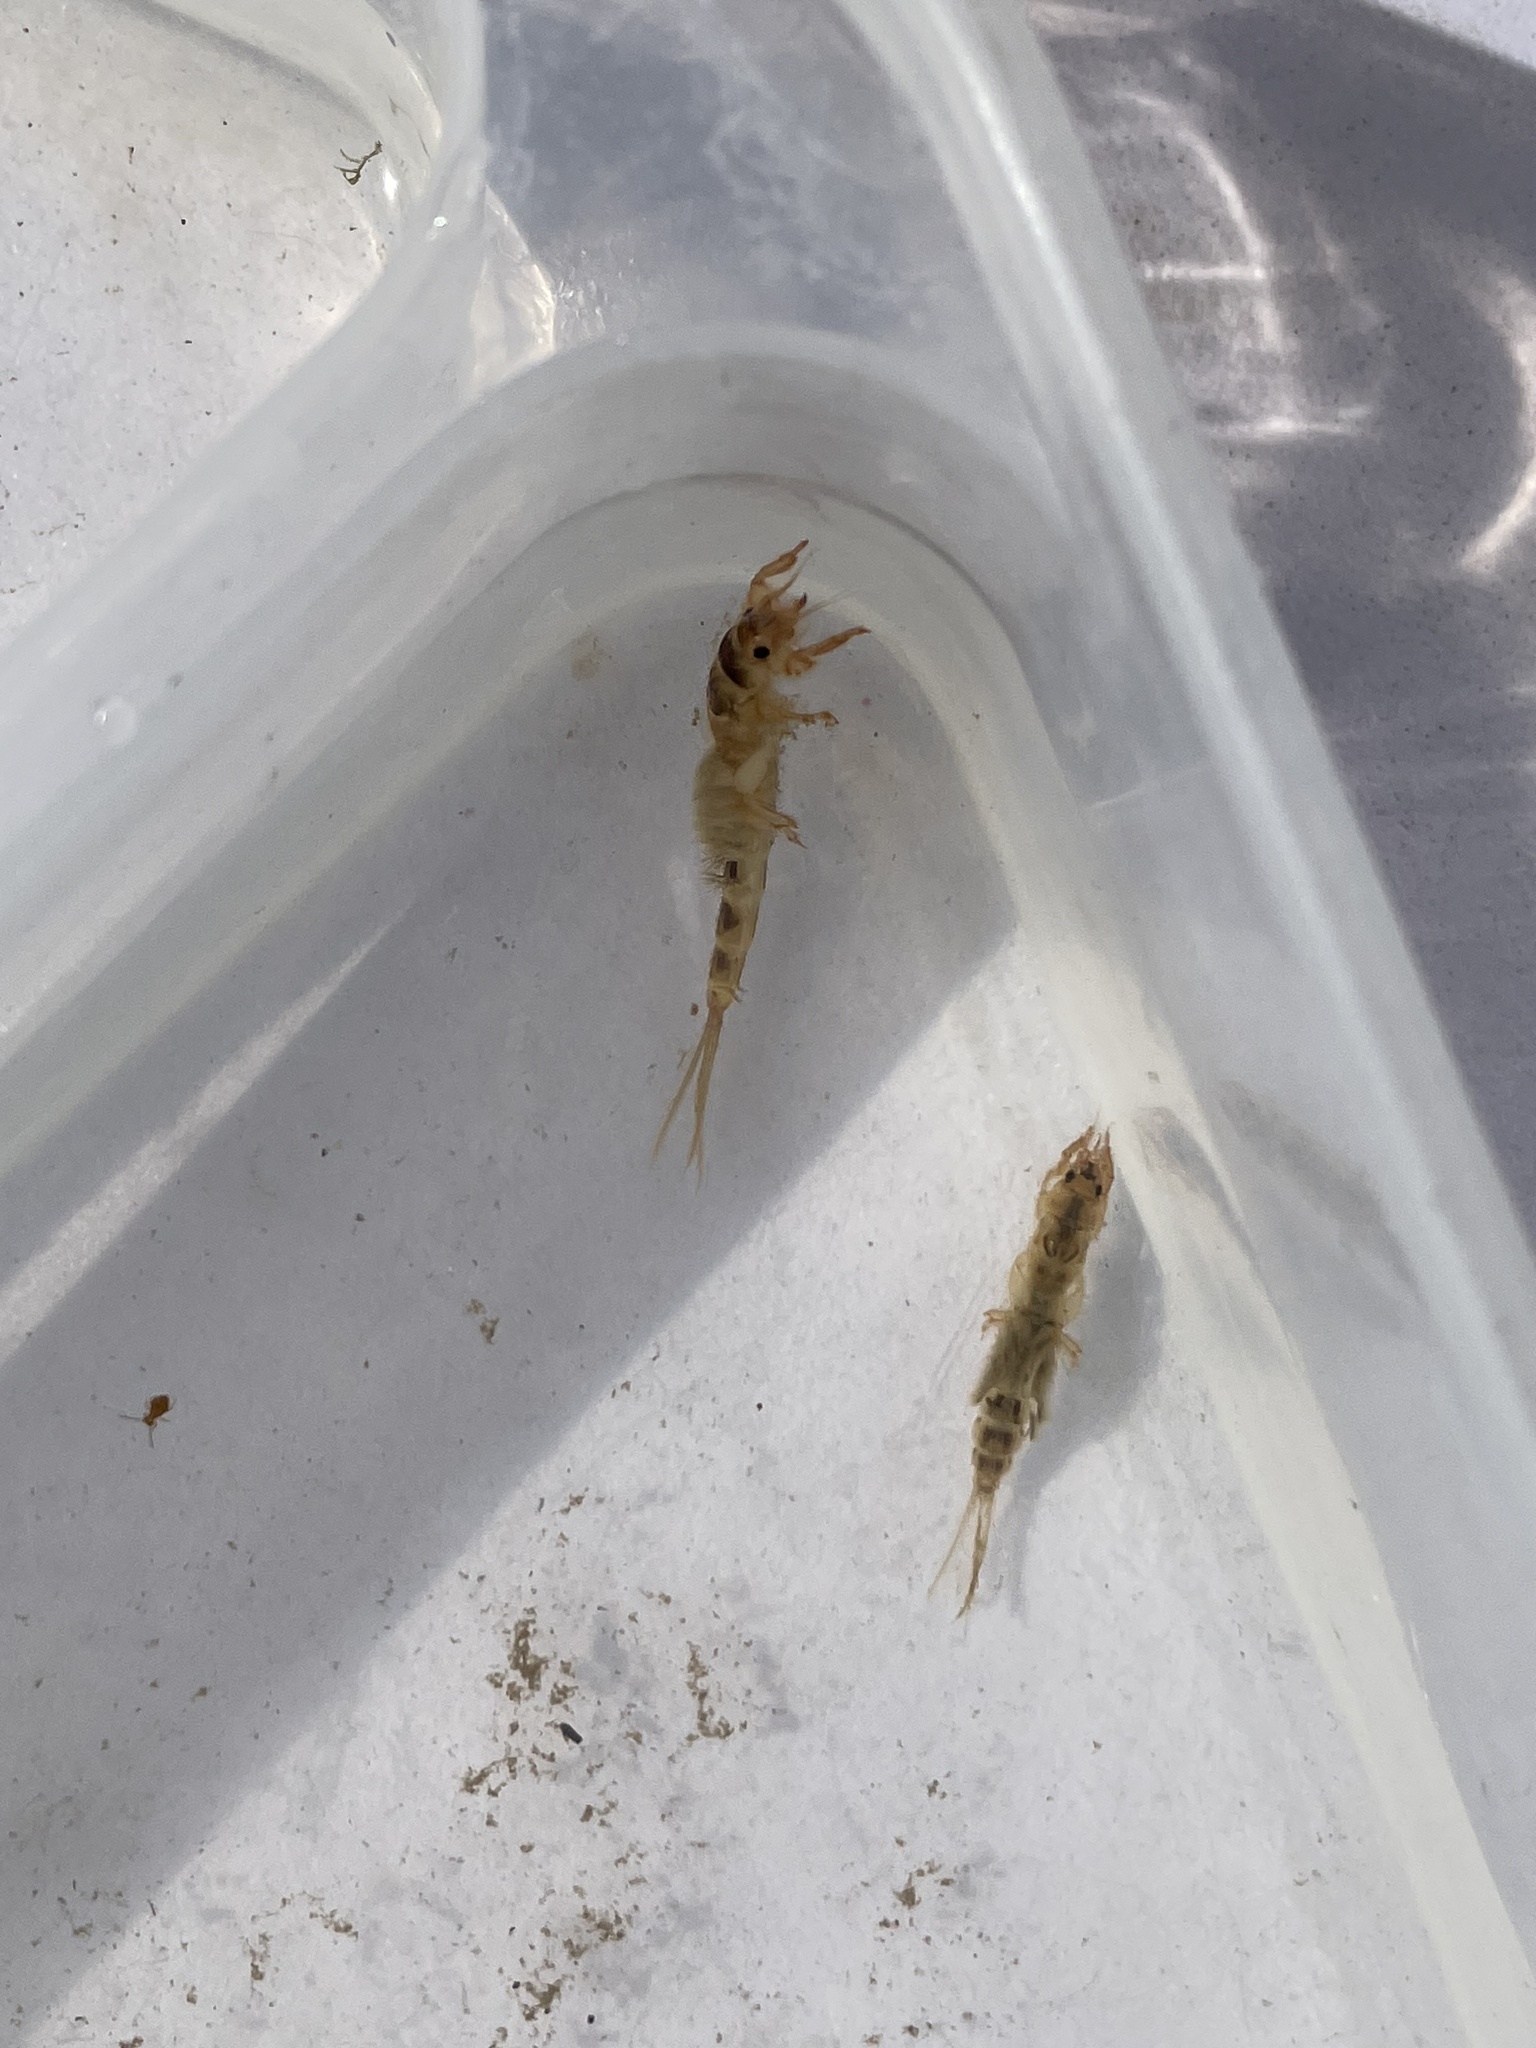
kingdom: Animalia
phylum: Arthropoda
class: Insecta
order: Ephemeroptera
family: Ephemeridae
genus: Ephemera
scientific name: Ephemera danica
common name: Green dun
